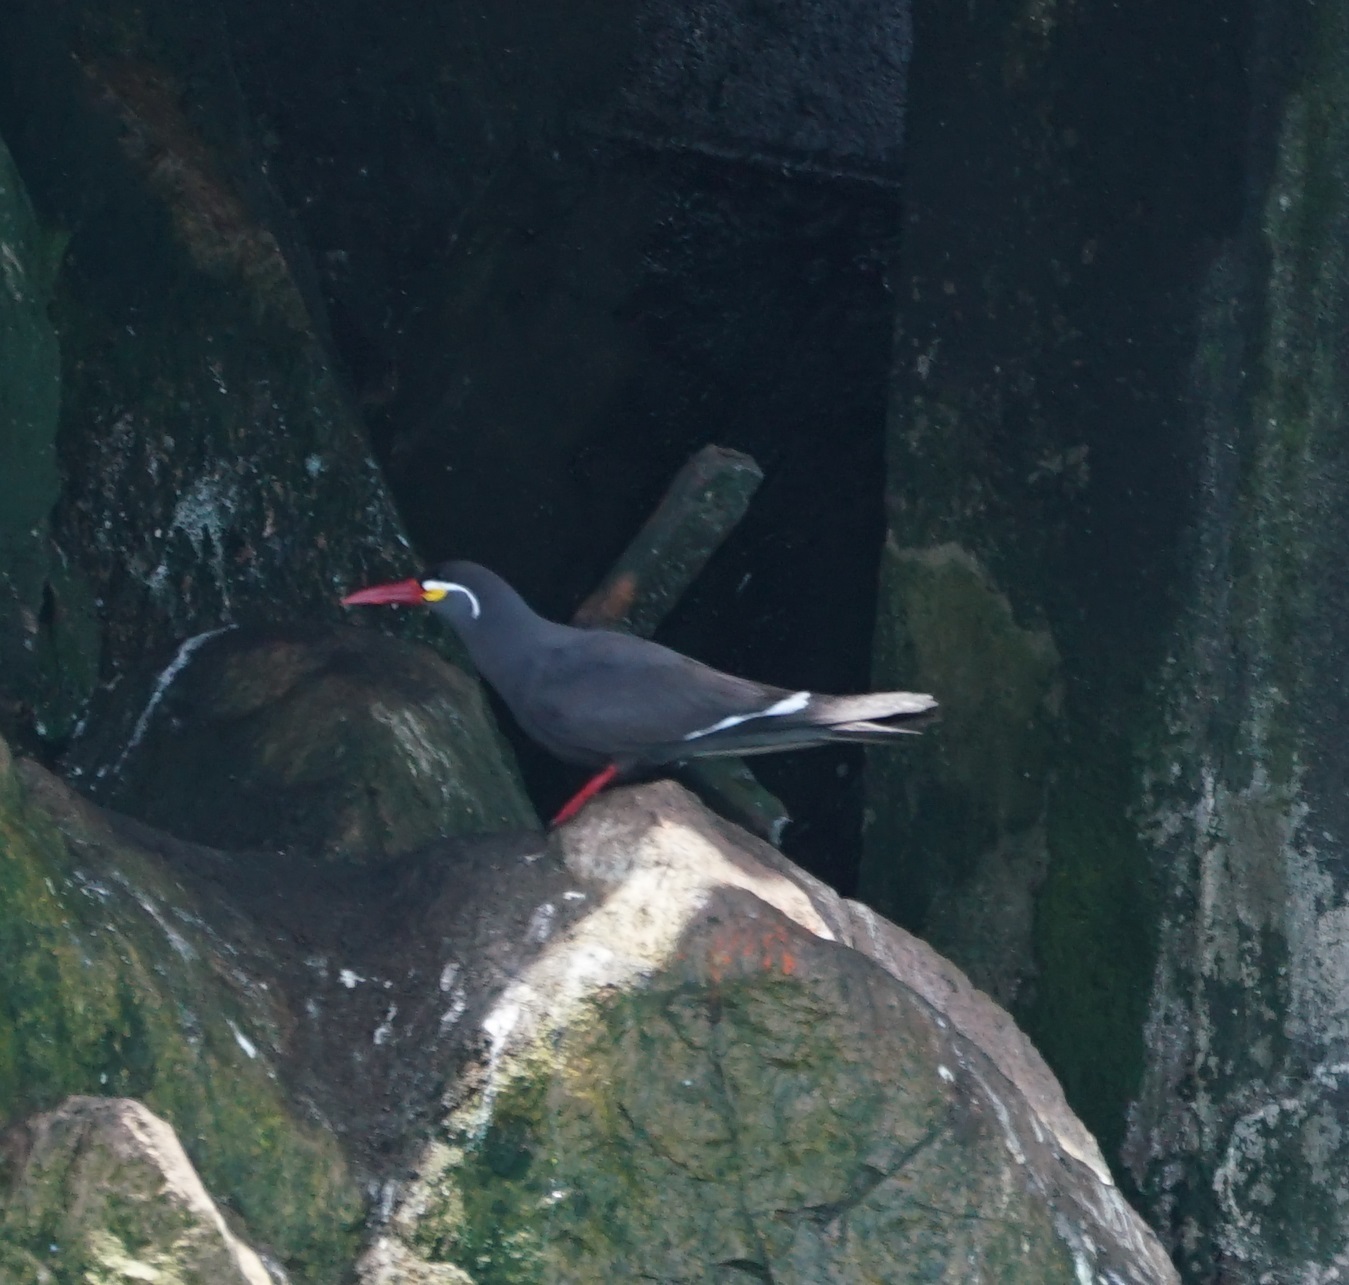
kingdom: Animalia
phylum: Chordata
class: Aves
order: Charadriiformes
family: Laridae
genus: Larosterna
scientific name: Larosterna inca
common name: Inca tern
